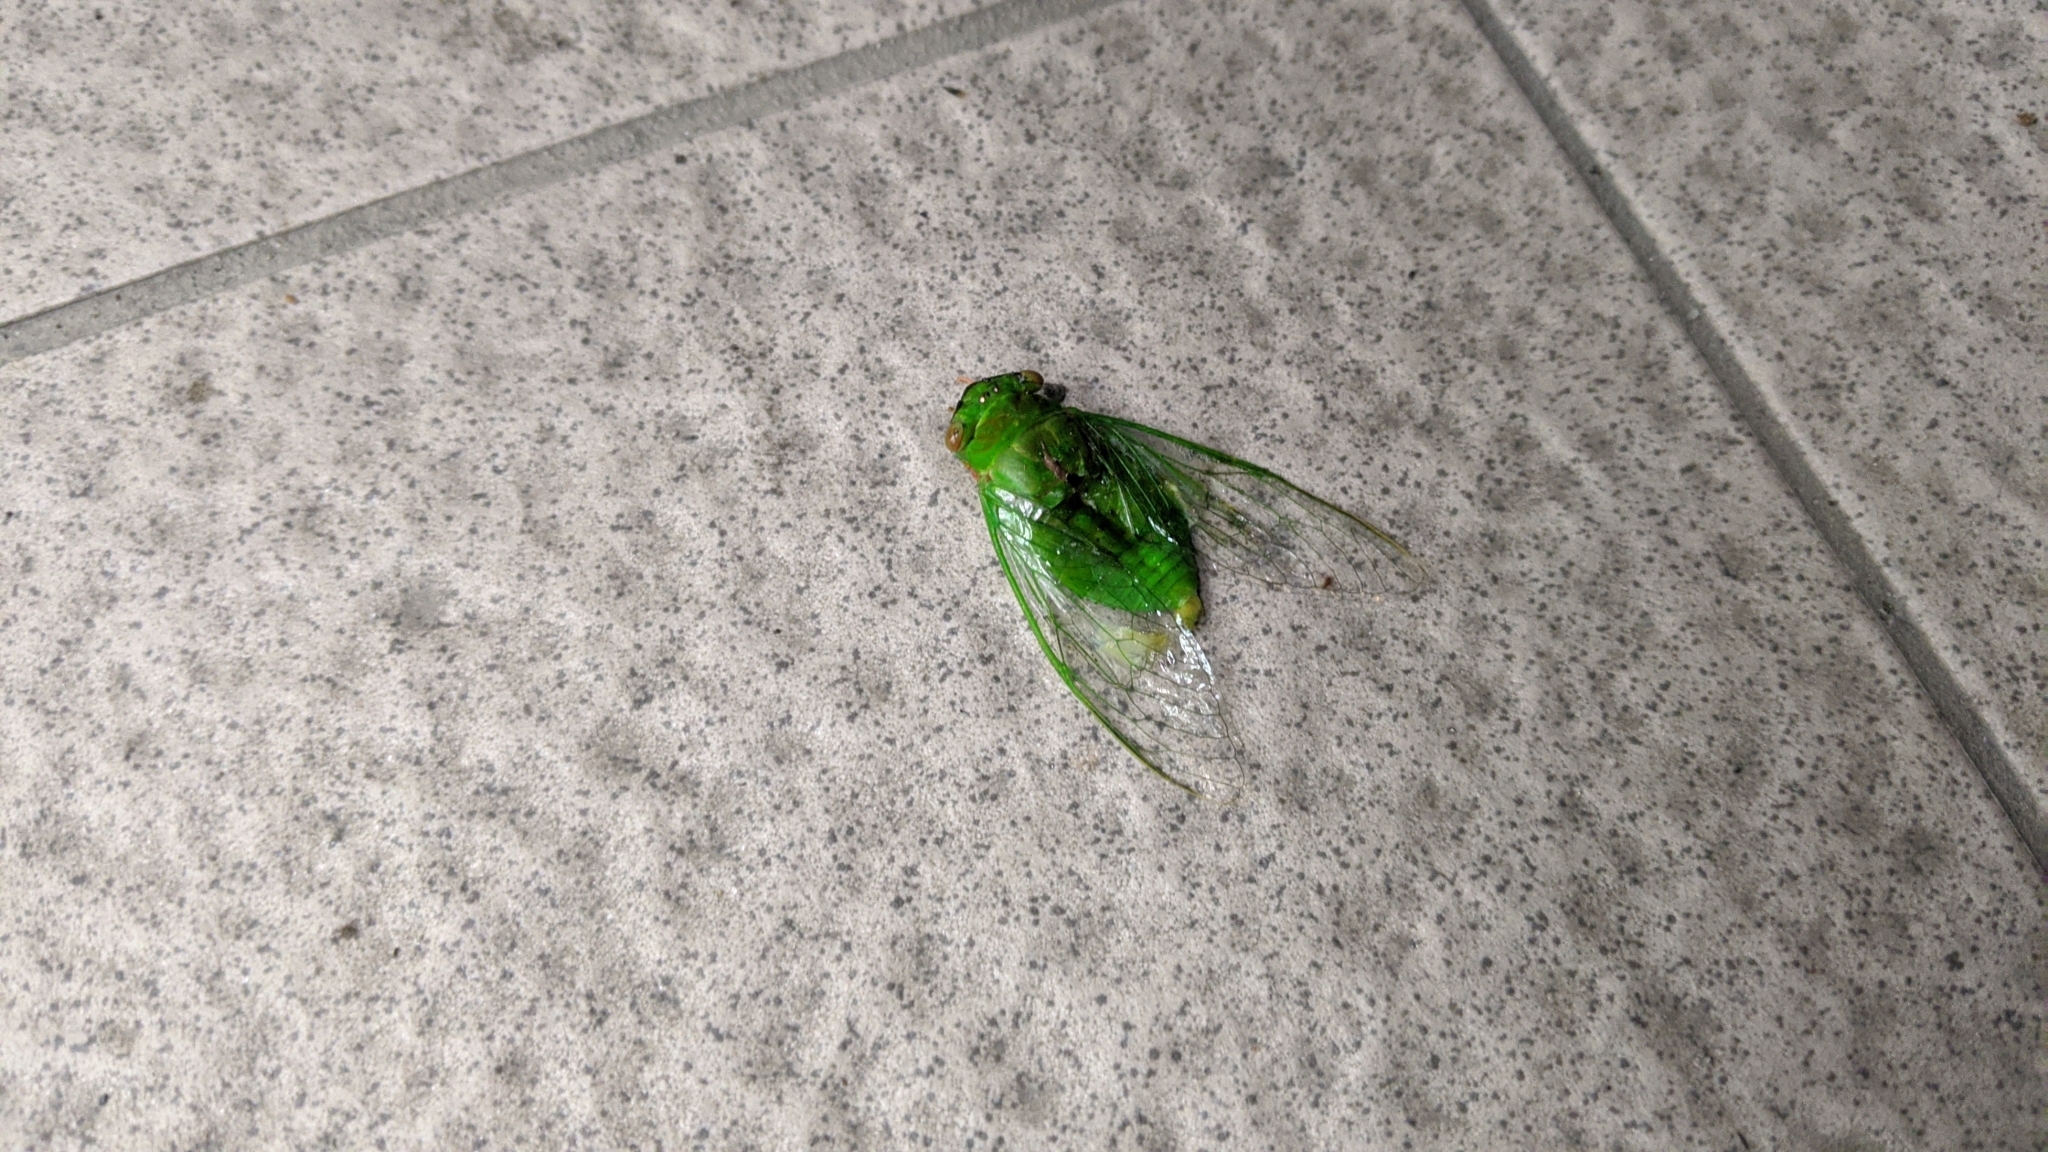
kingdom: Animalia
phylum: Arthropoda
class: Insecta
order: Hemiptera
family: Cicadidae
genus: Chremistica
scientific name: Chremistica ochracea
